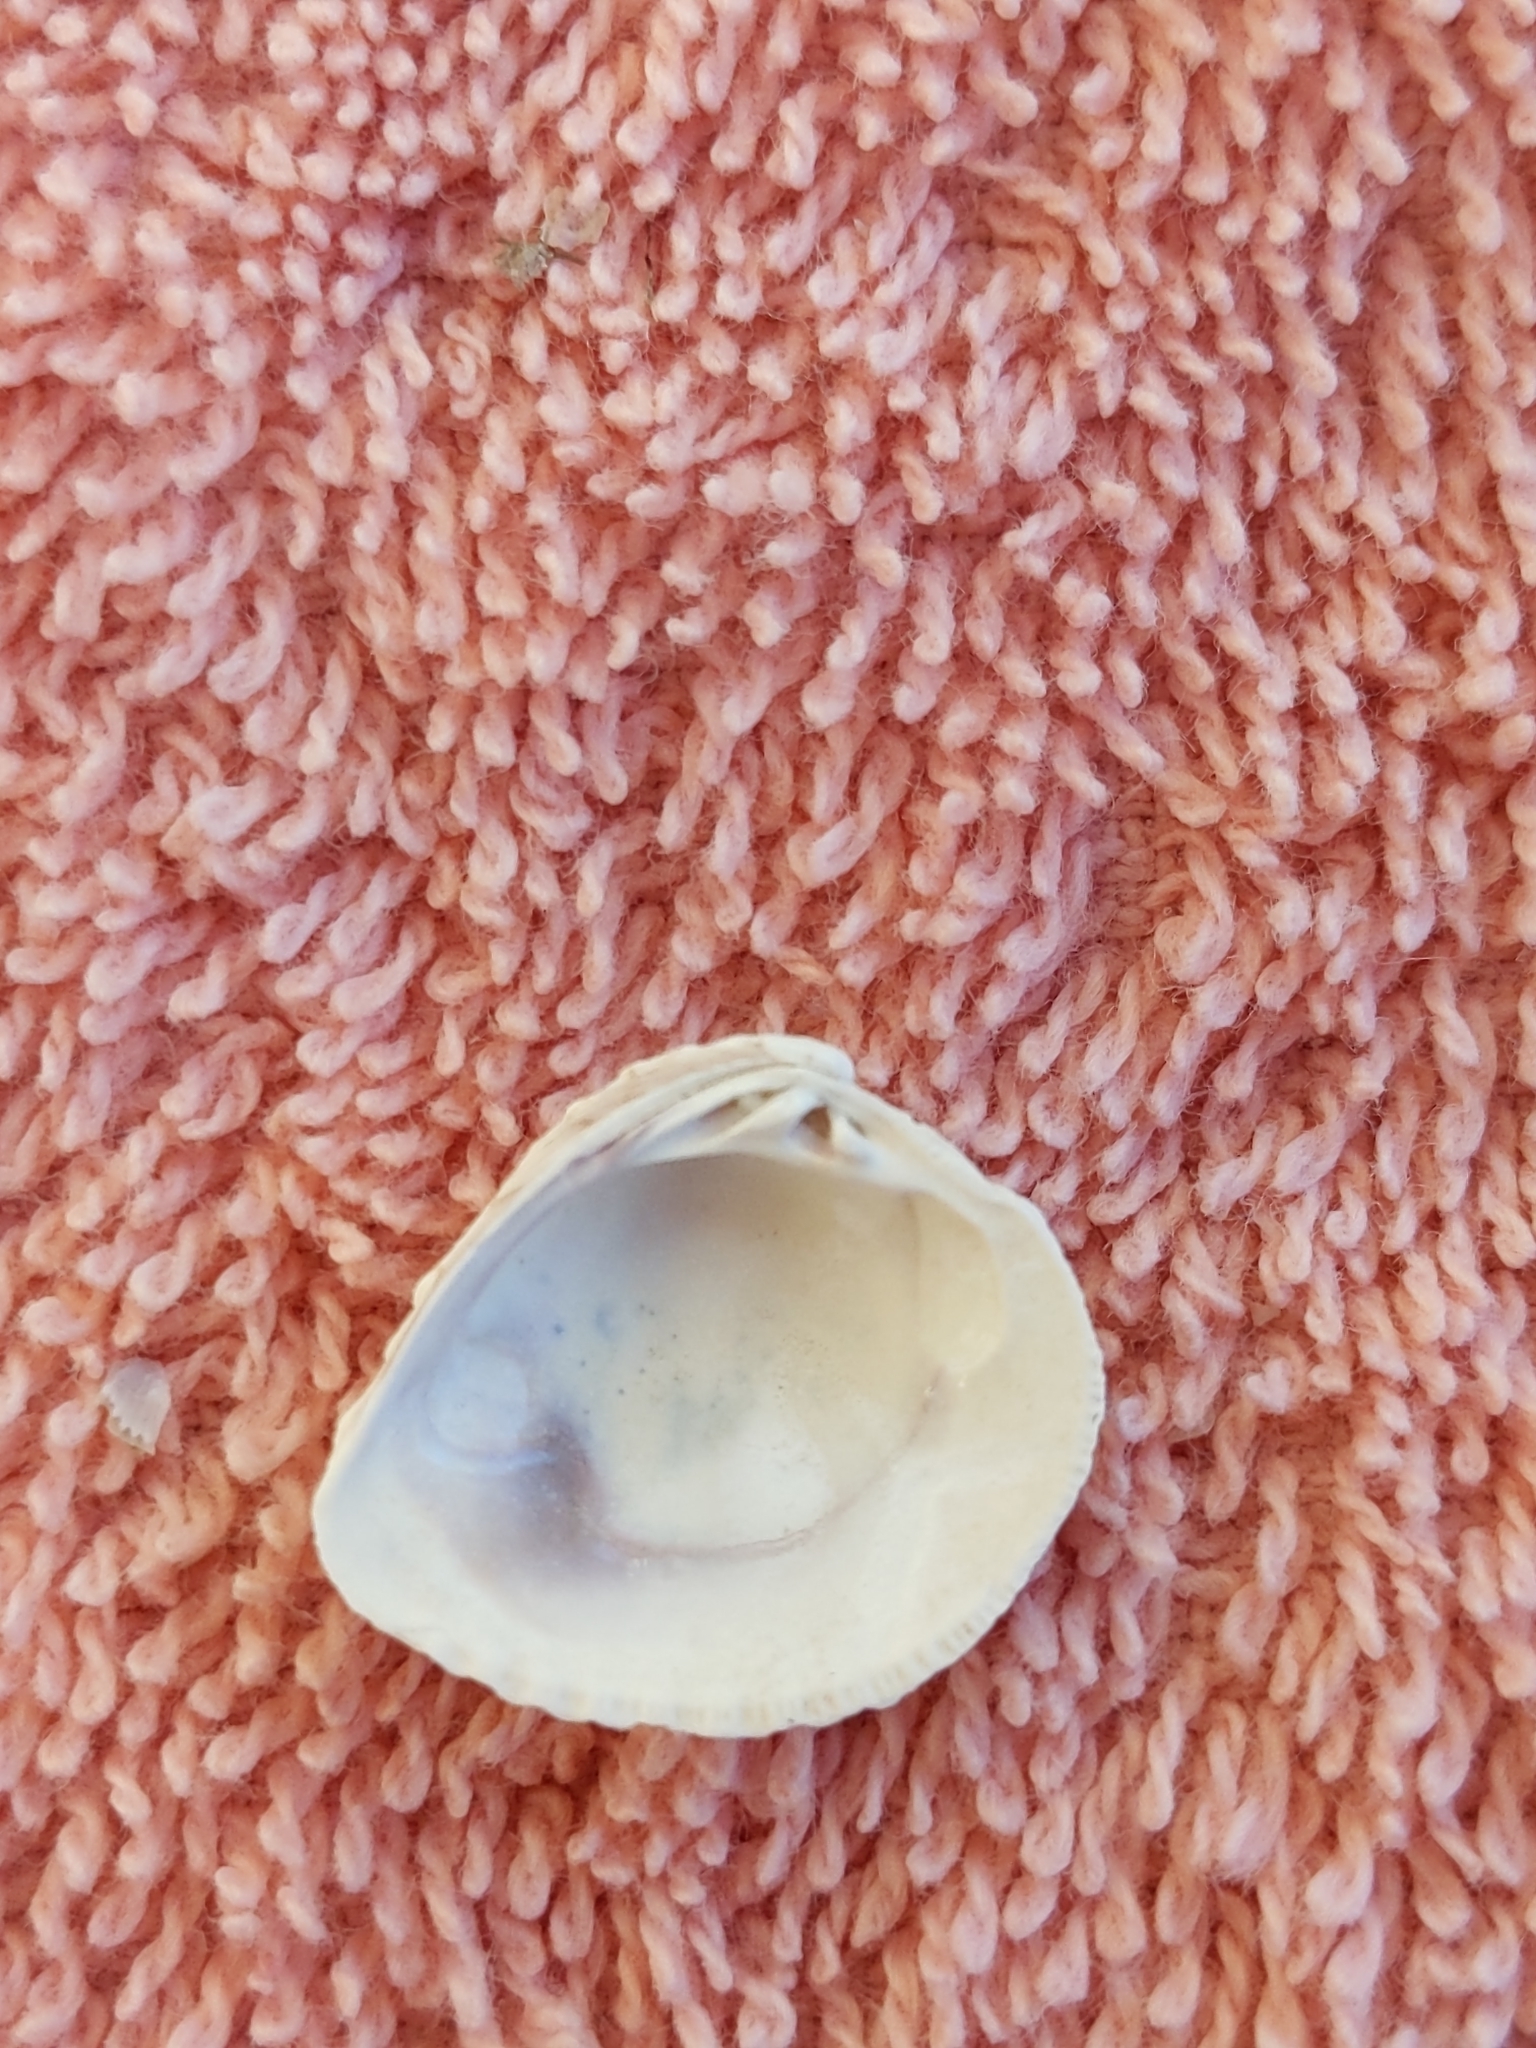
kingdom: Animalia
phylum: Mollusca
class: Bivalvia
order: Venerida
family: Veneridae
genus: Chione
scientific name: Chione elevata
